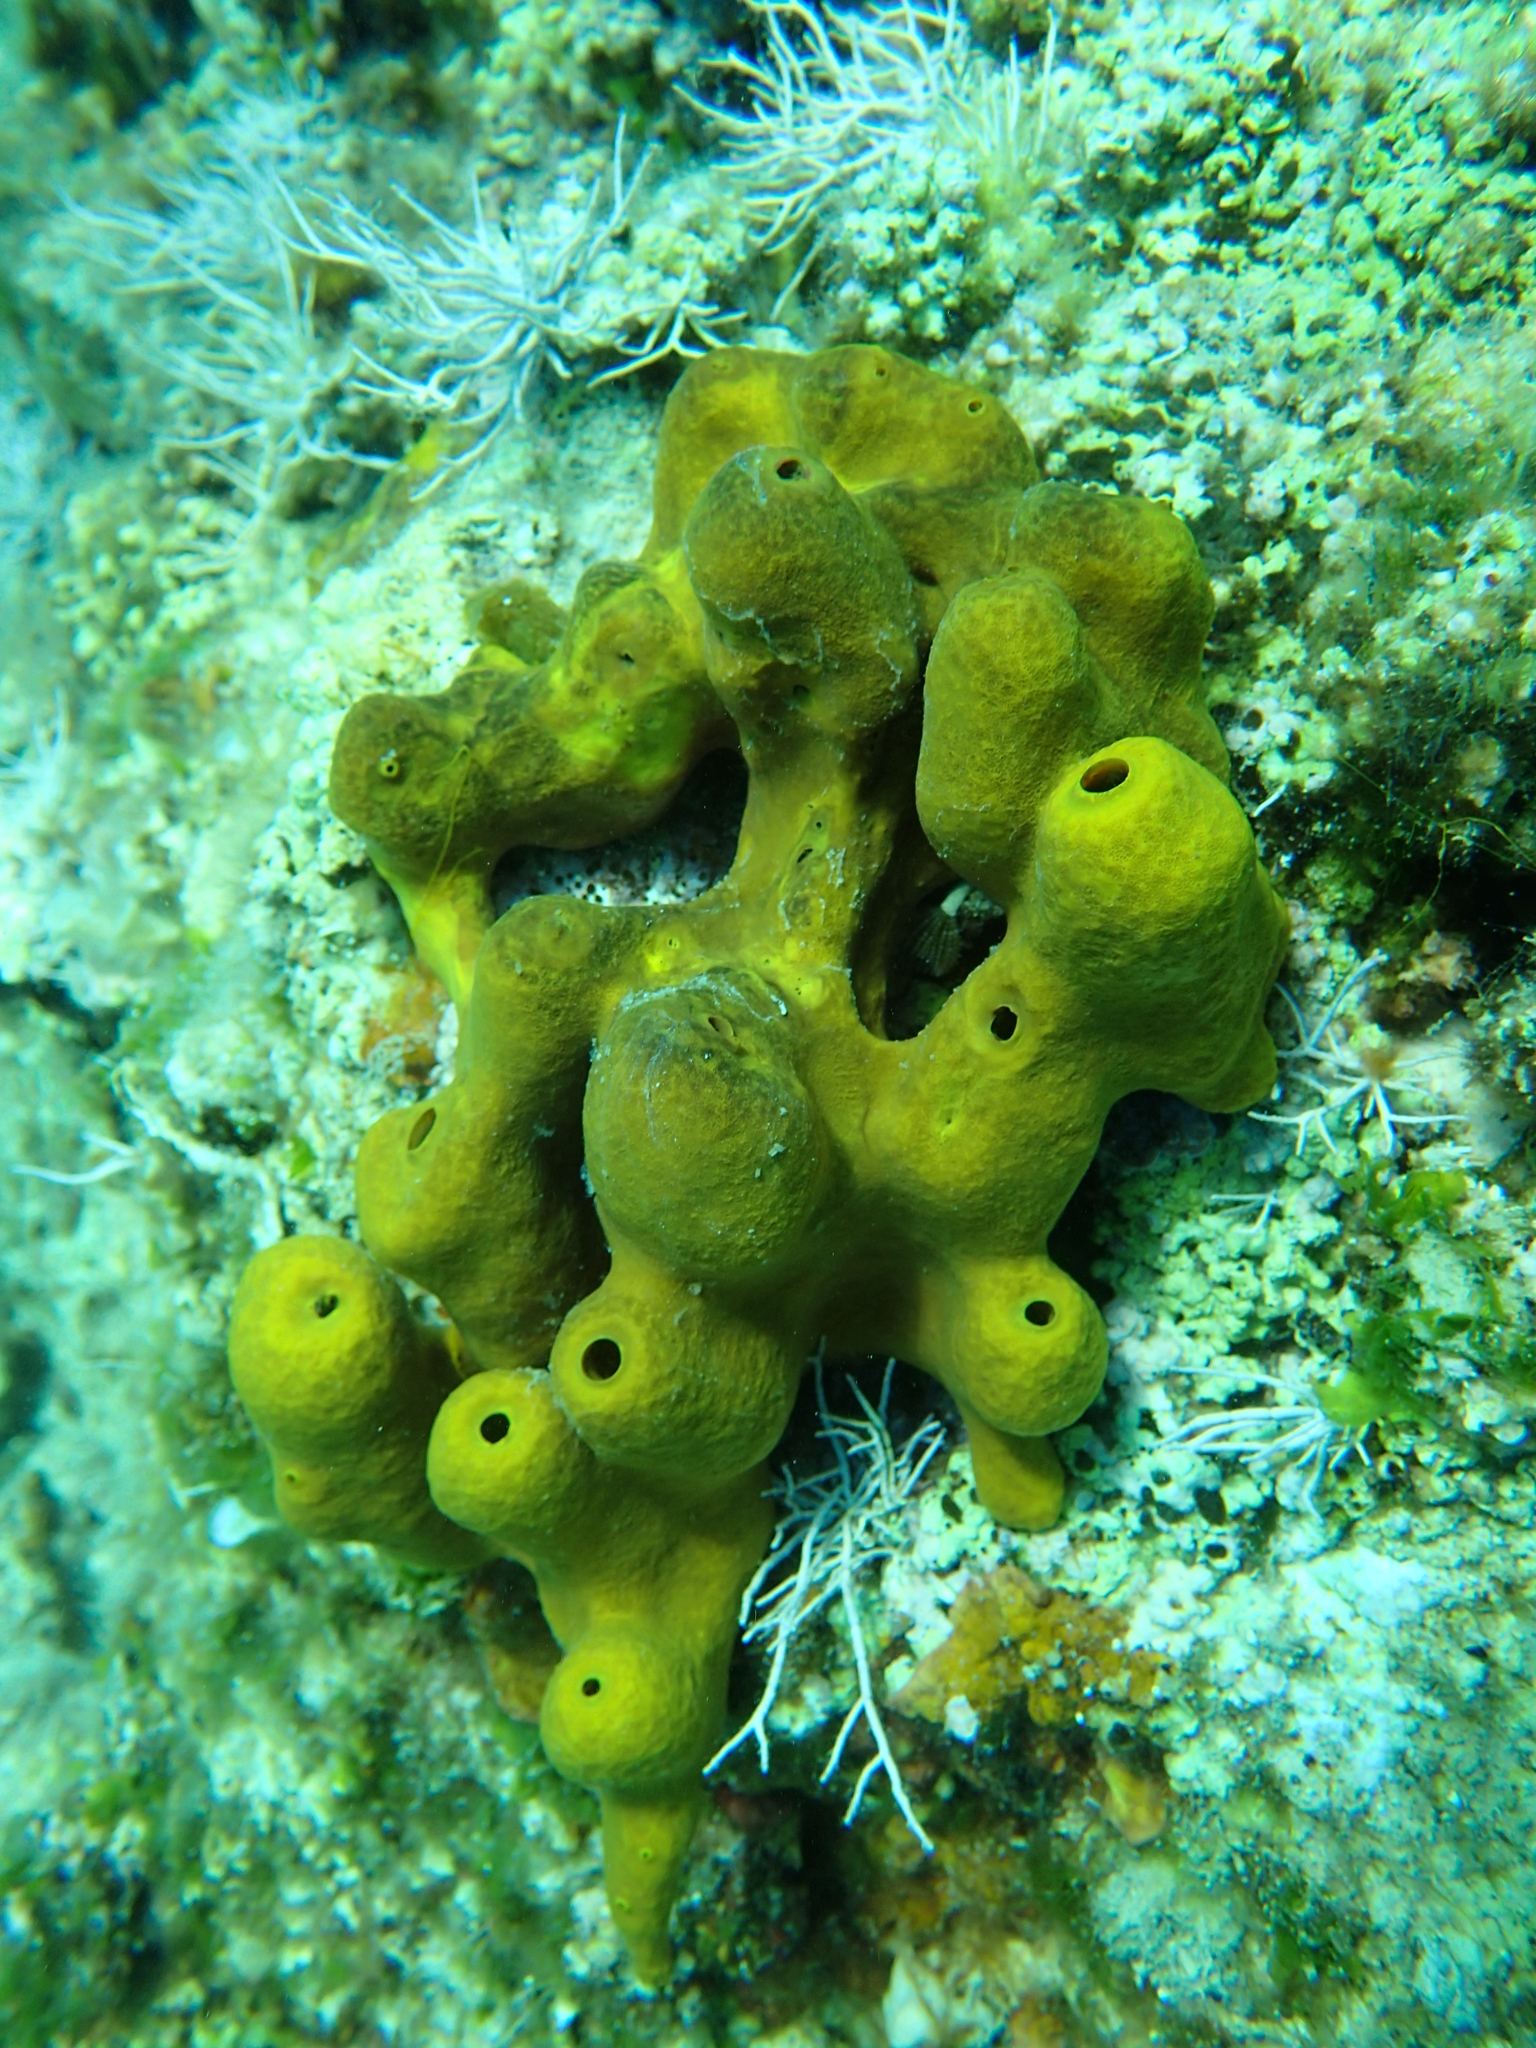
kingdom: Animalia
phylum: Porifera
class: Demospongiae
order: Verongiida
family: Aplysinidae
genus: Aplysina
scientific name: Aplysina aerophoba
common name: Aureate sponge
